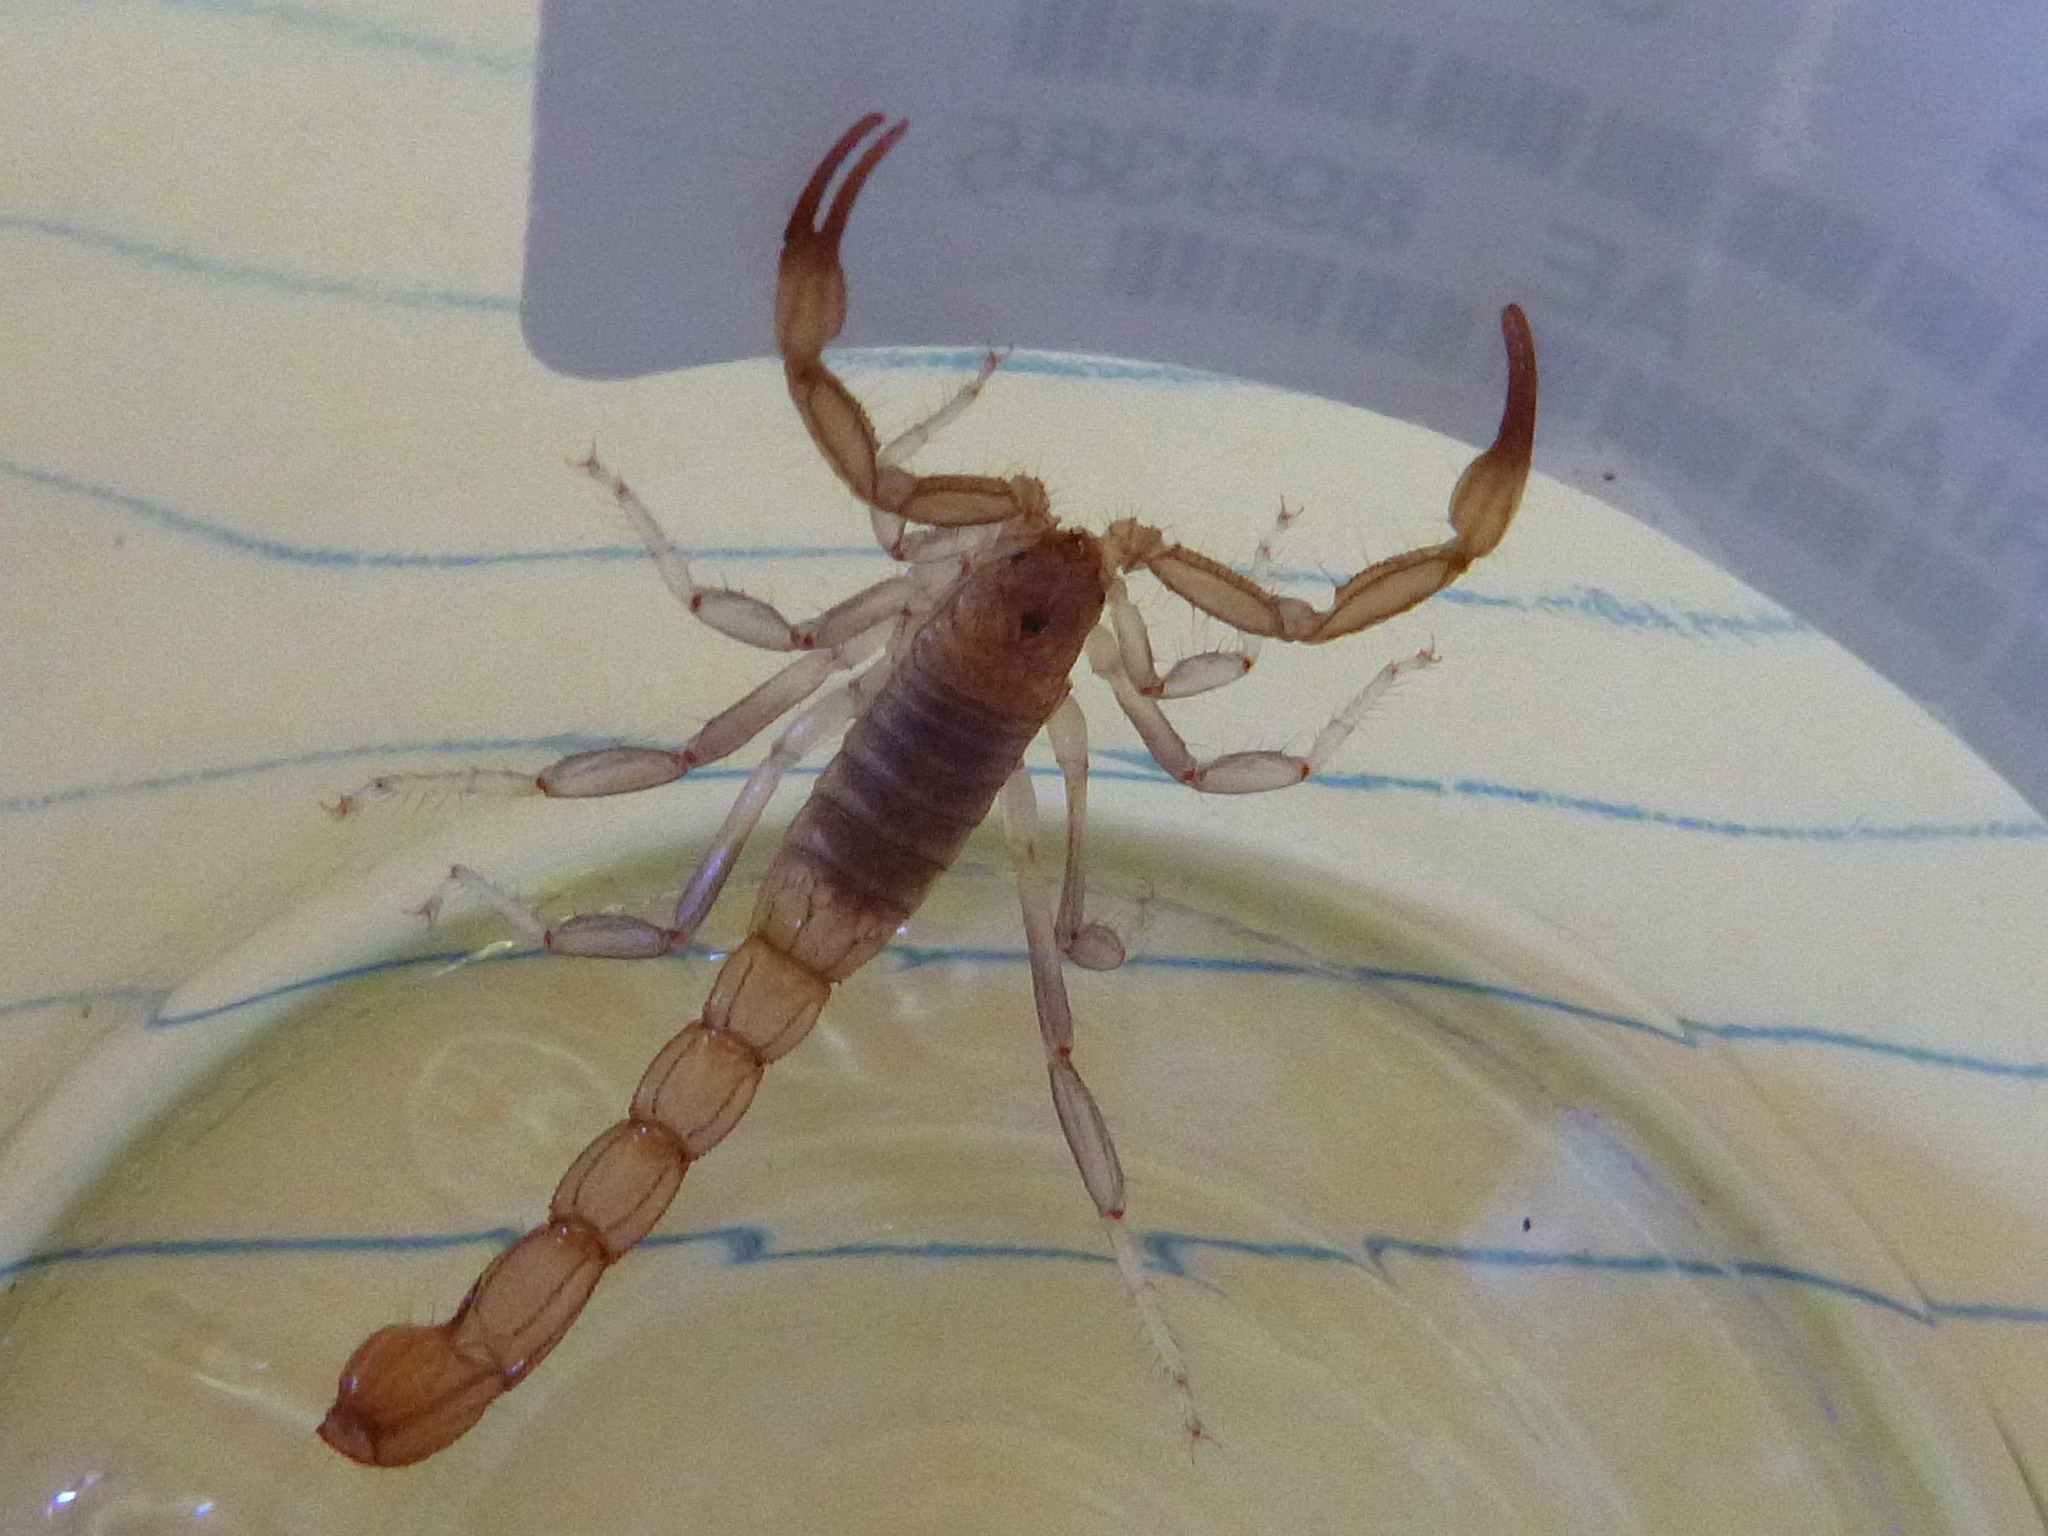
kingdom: Animalia
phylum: Arthropoda
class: Arachnida
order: Scorpiones
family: Vaejovidae
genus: Paravaejovis
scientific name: Paravaejovis puritanus
